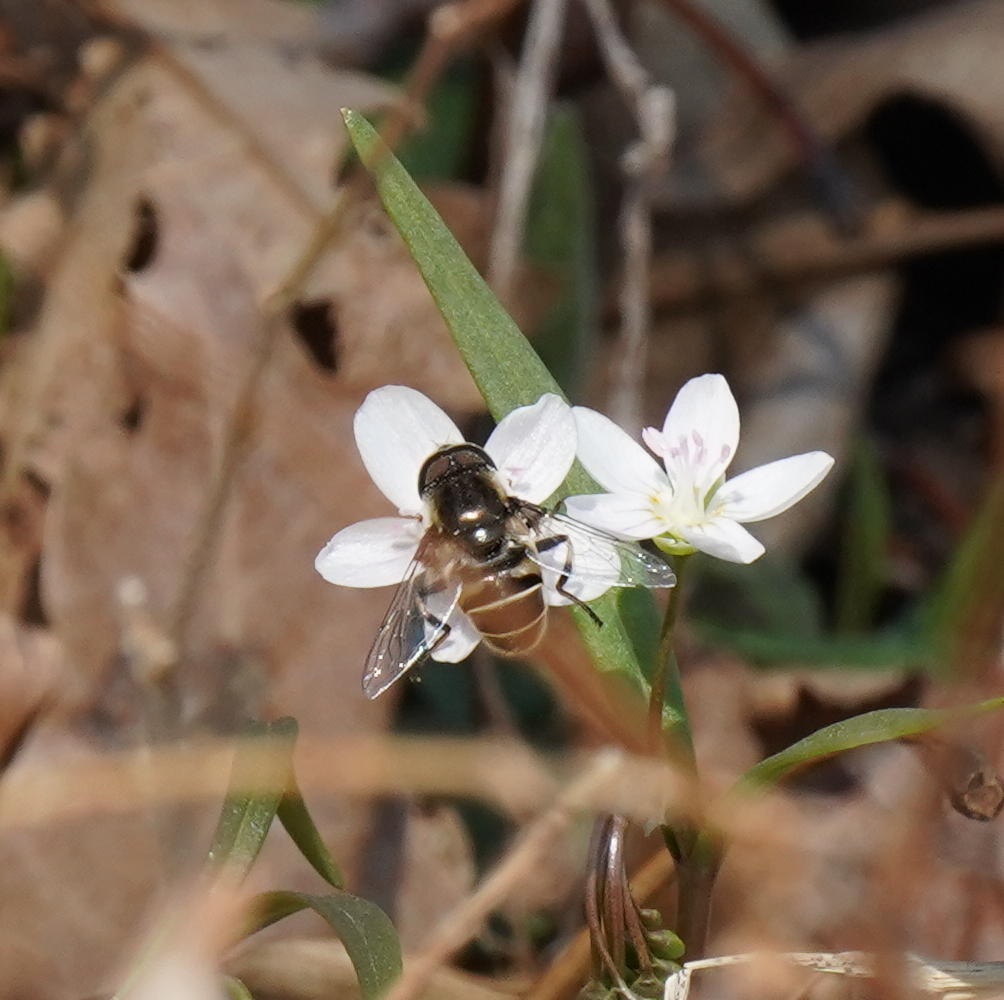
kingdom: Plantae
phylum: Tracheophyta
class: Magnoliopsida
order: Caryophyllales
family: Montiaceae
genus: Claytonia
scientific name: Claytonia virginica
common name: Virginia springbeauty
